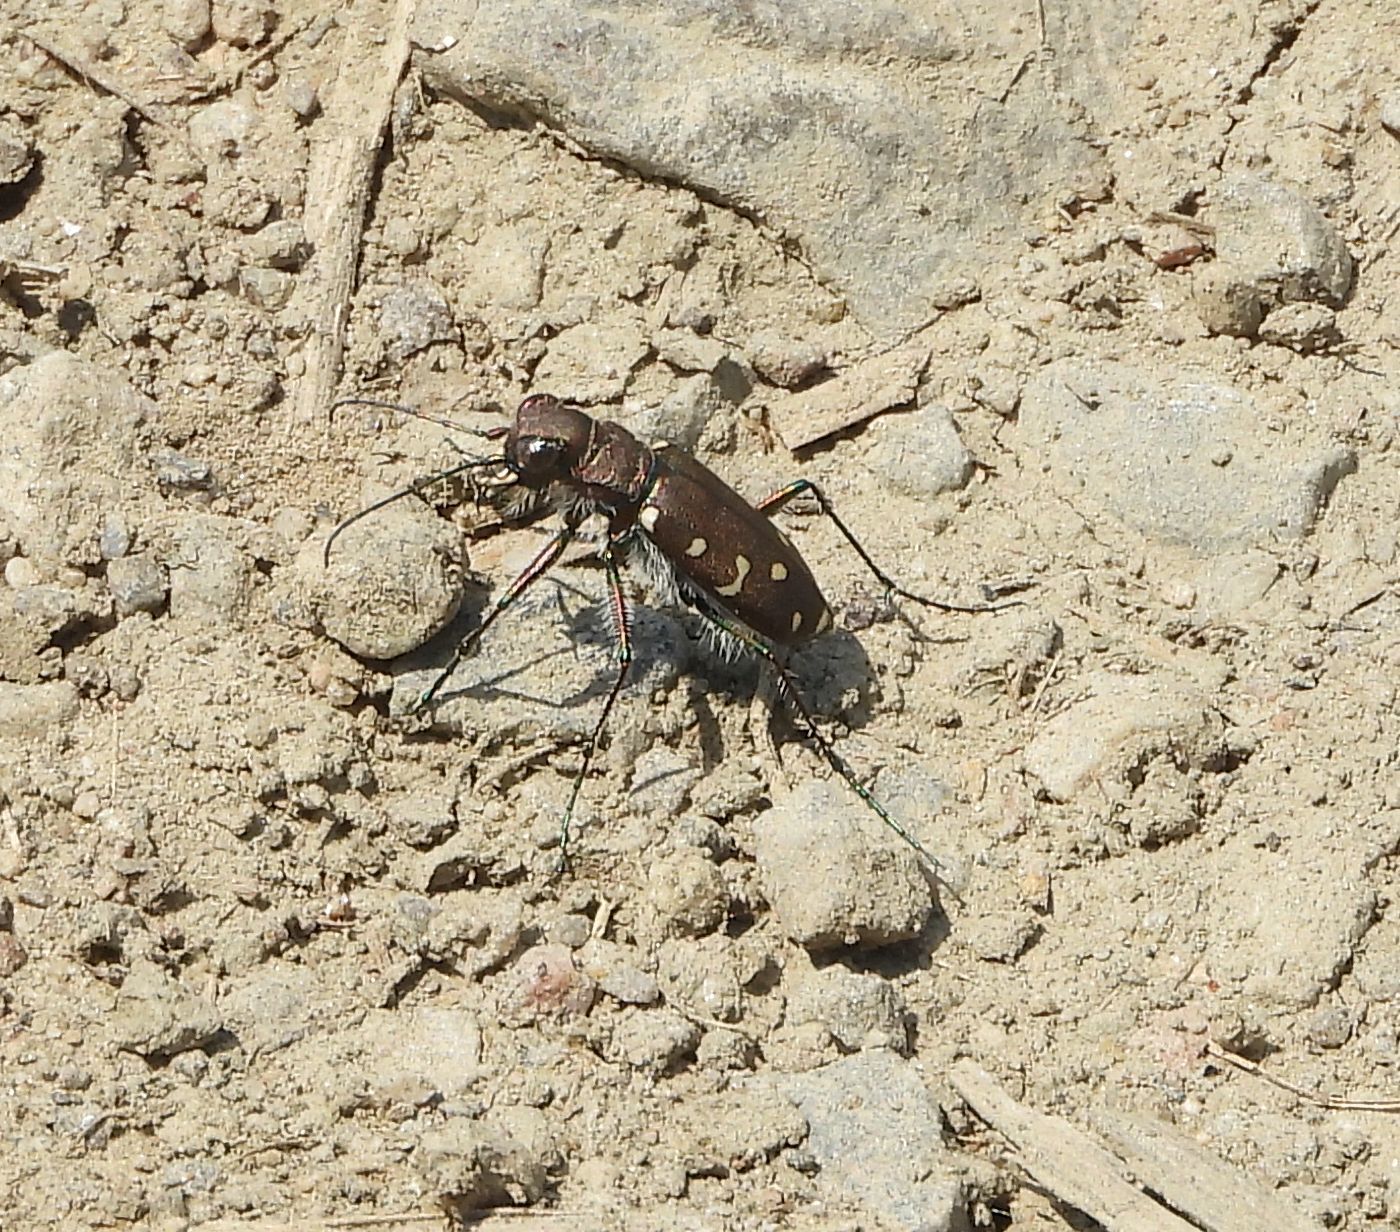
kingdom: Animalia
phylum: Arthropoda
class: Insecta
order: Coleoptera
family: Carabidae
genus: Cicindela
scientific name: Cicindela duodecimguttata
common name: Twelve-spotted tiger beetle
